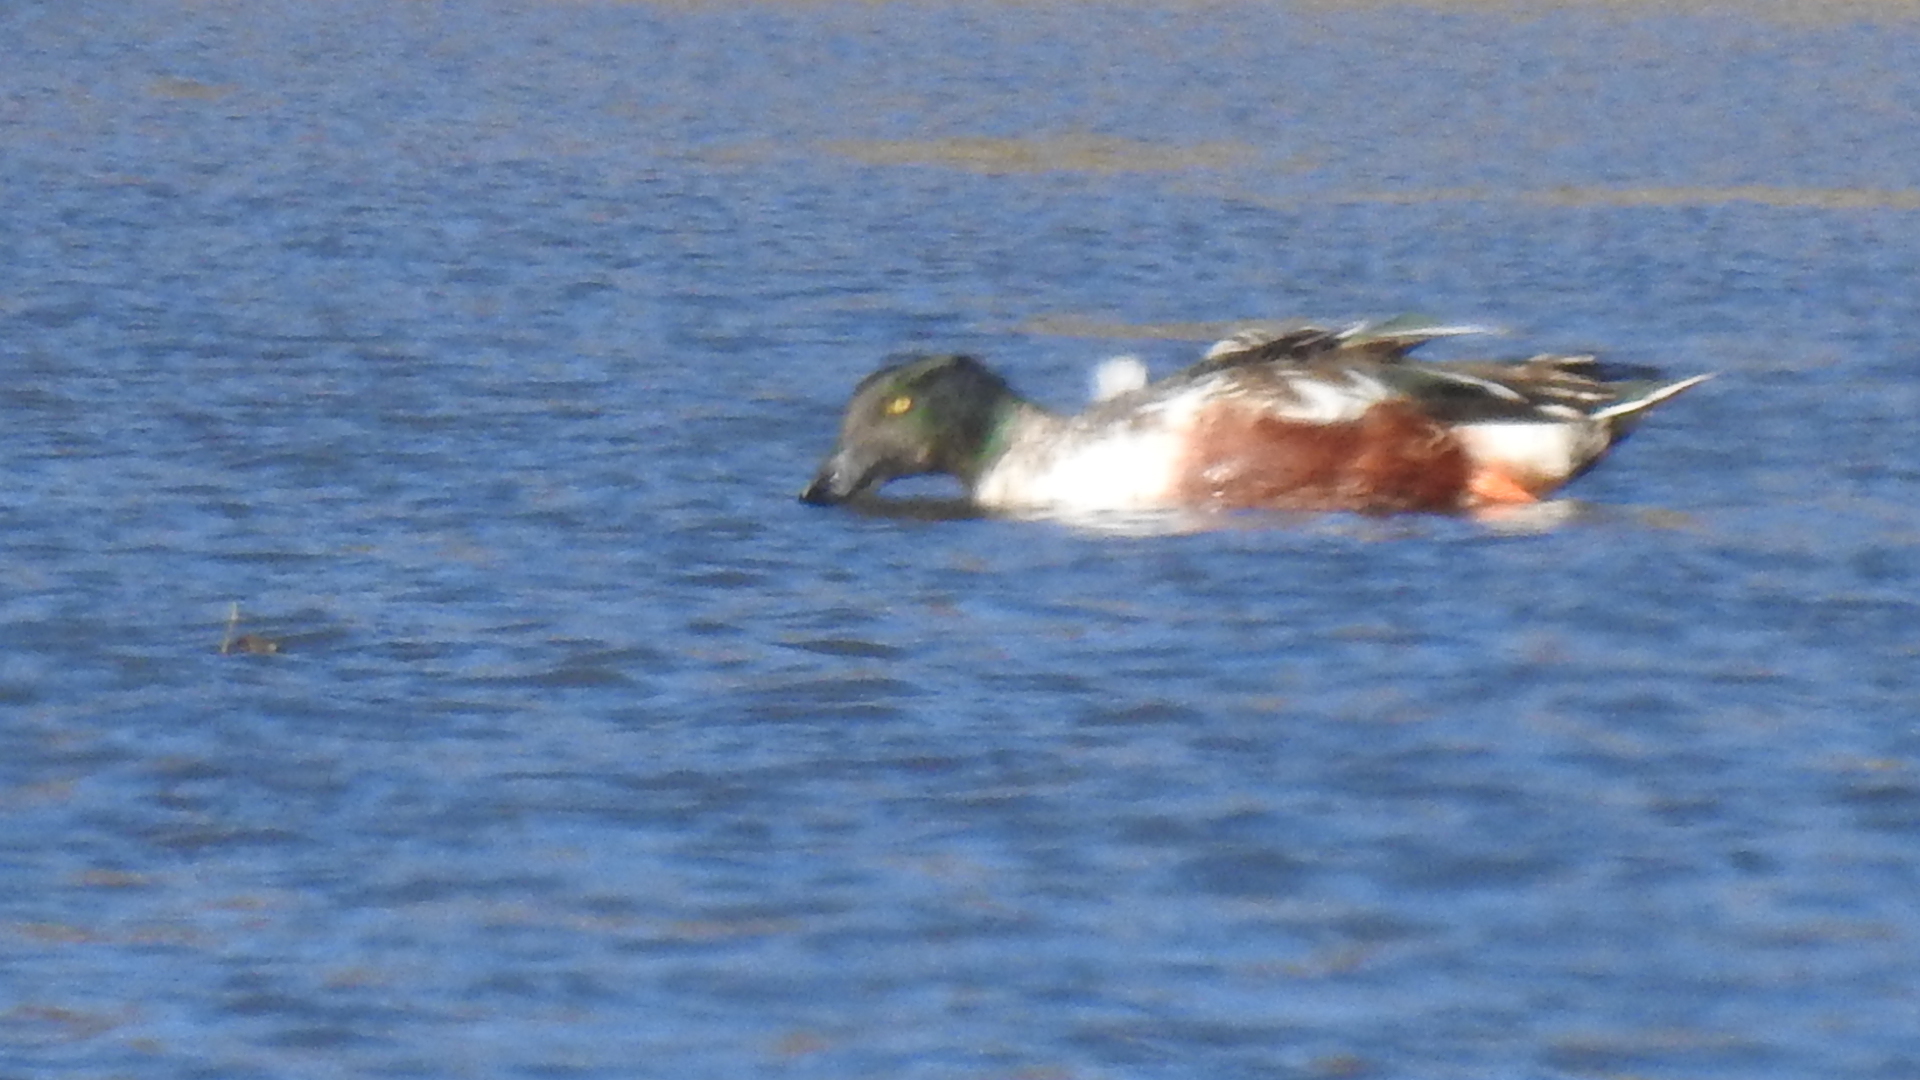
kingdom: Animalia
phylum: Chordata
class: Aves
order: Anseriformes
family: Anatidae
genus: Spatula
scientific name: Spatula clypeata
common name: Northern shoveler
